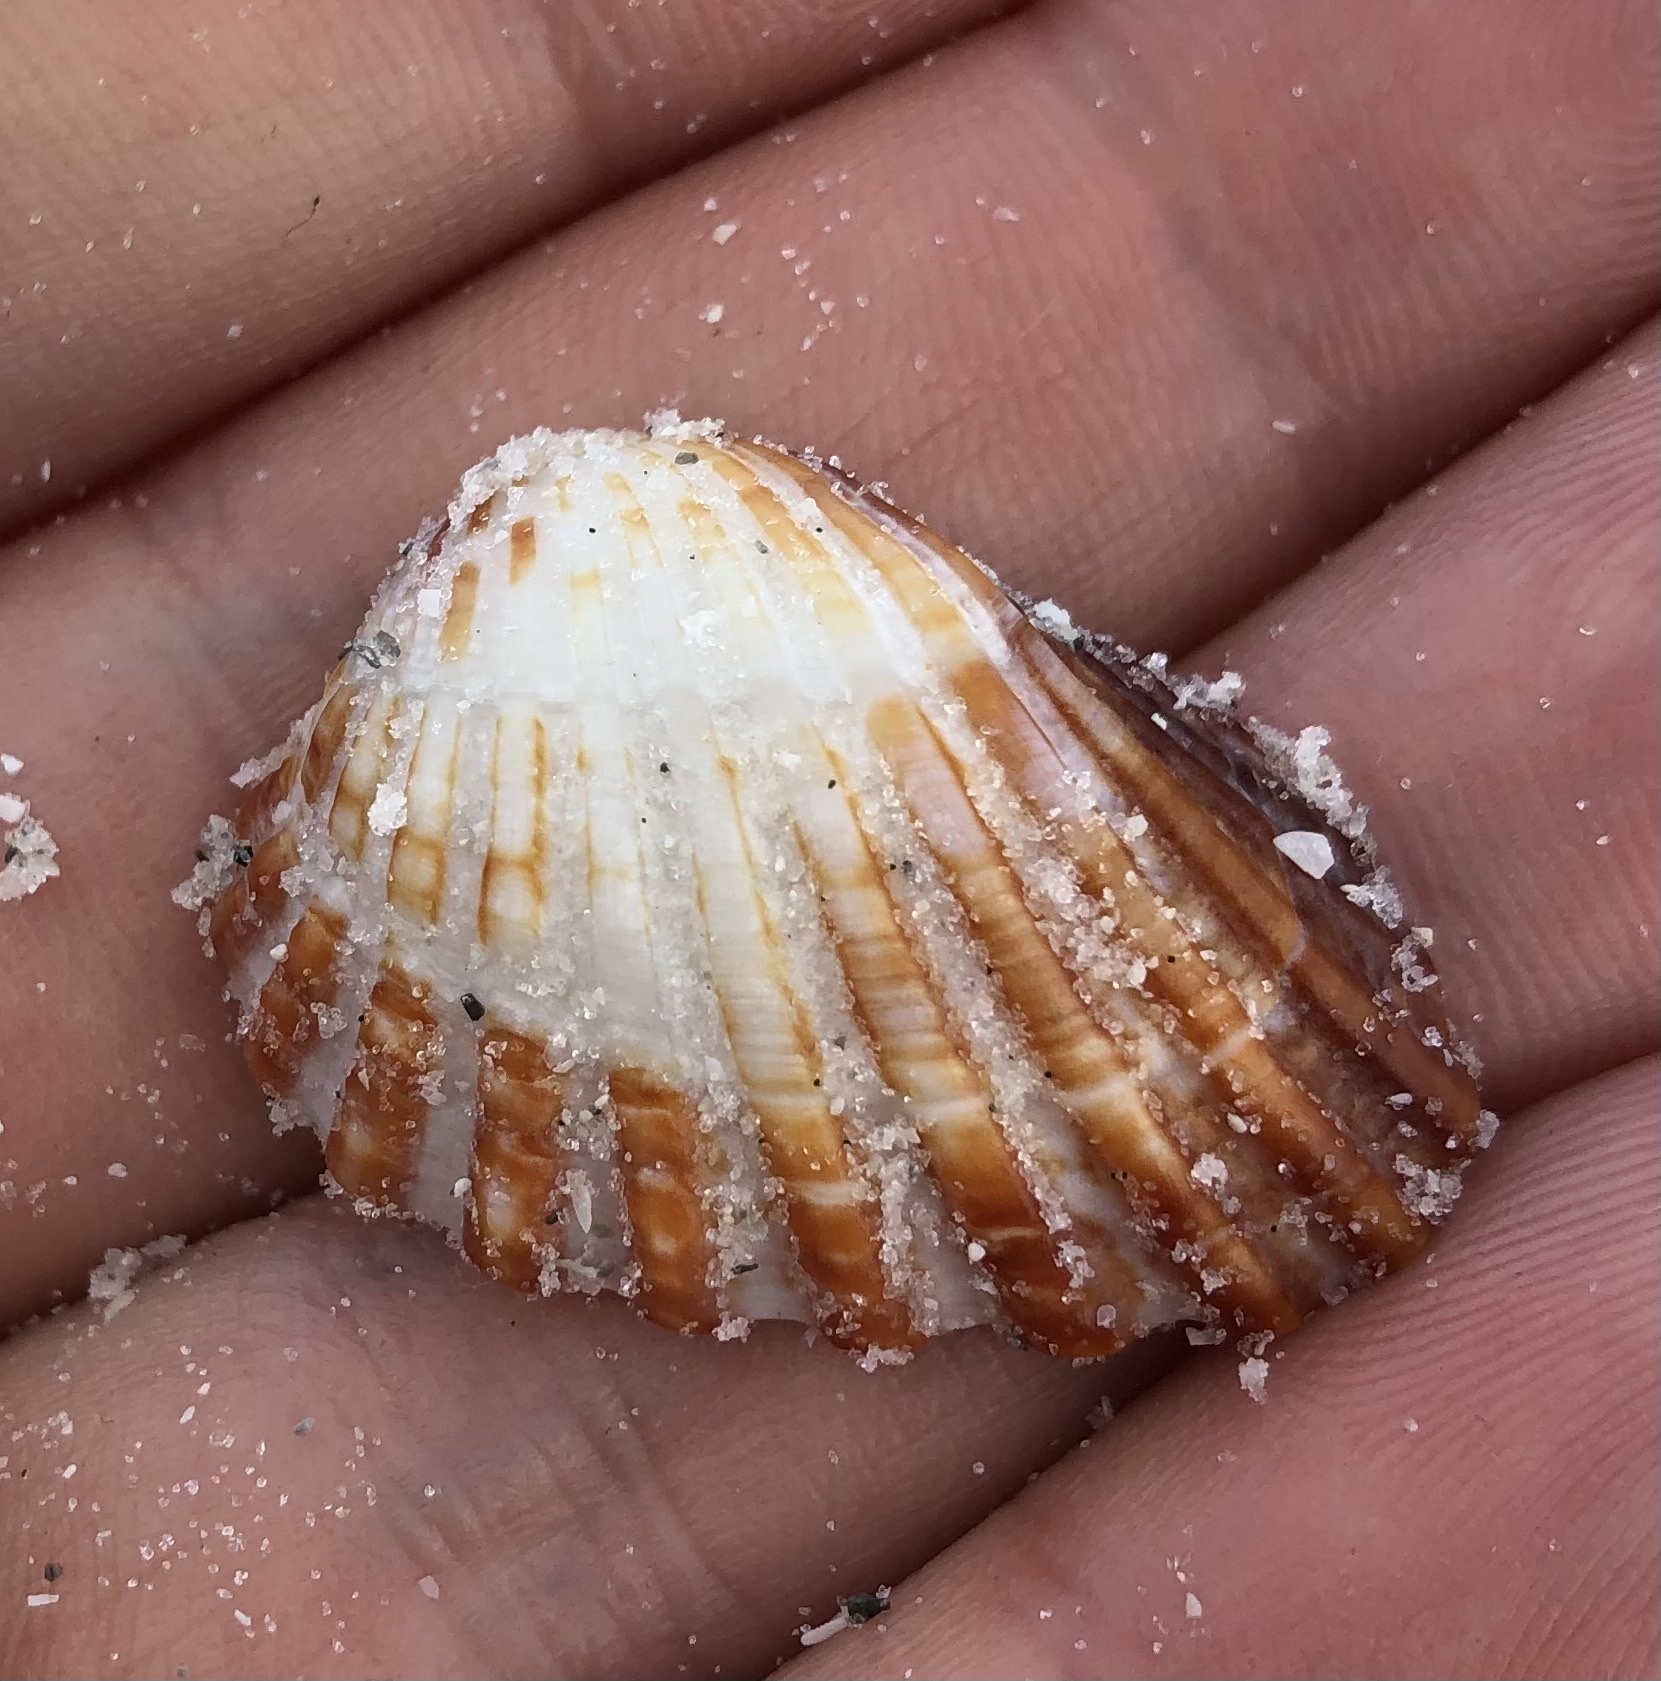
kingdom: Animalia
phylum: Mollusca
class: Bivalvia
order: Carditida
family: Carditidae
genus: Cardites
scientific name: Cardites floridanus
